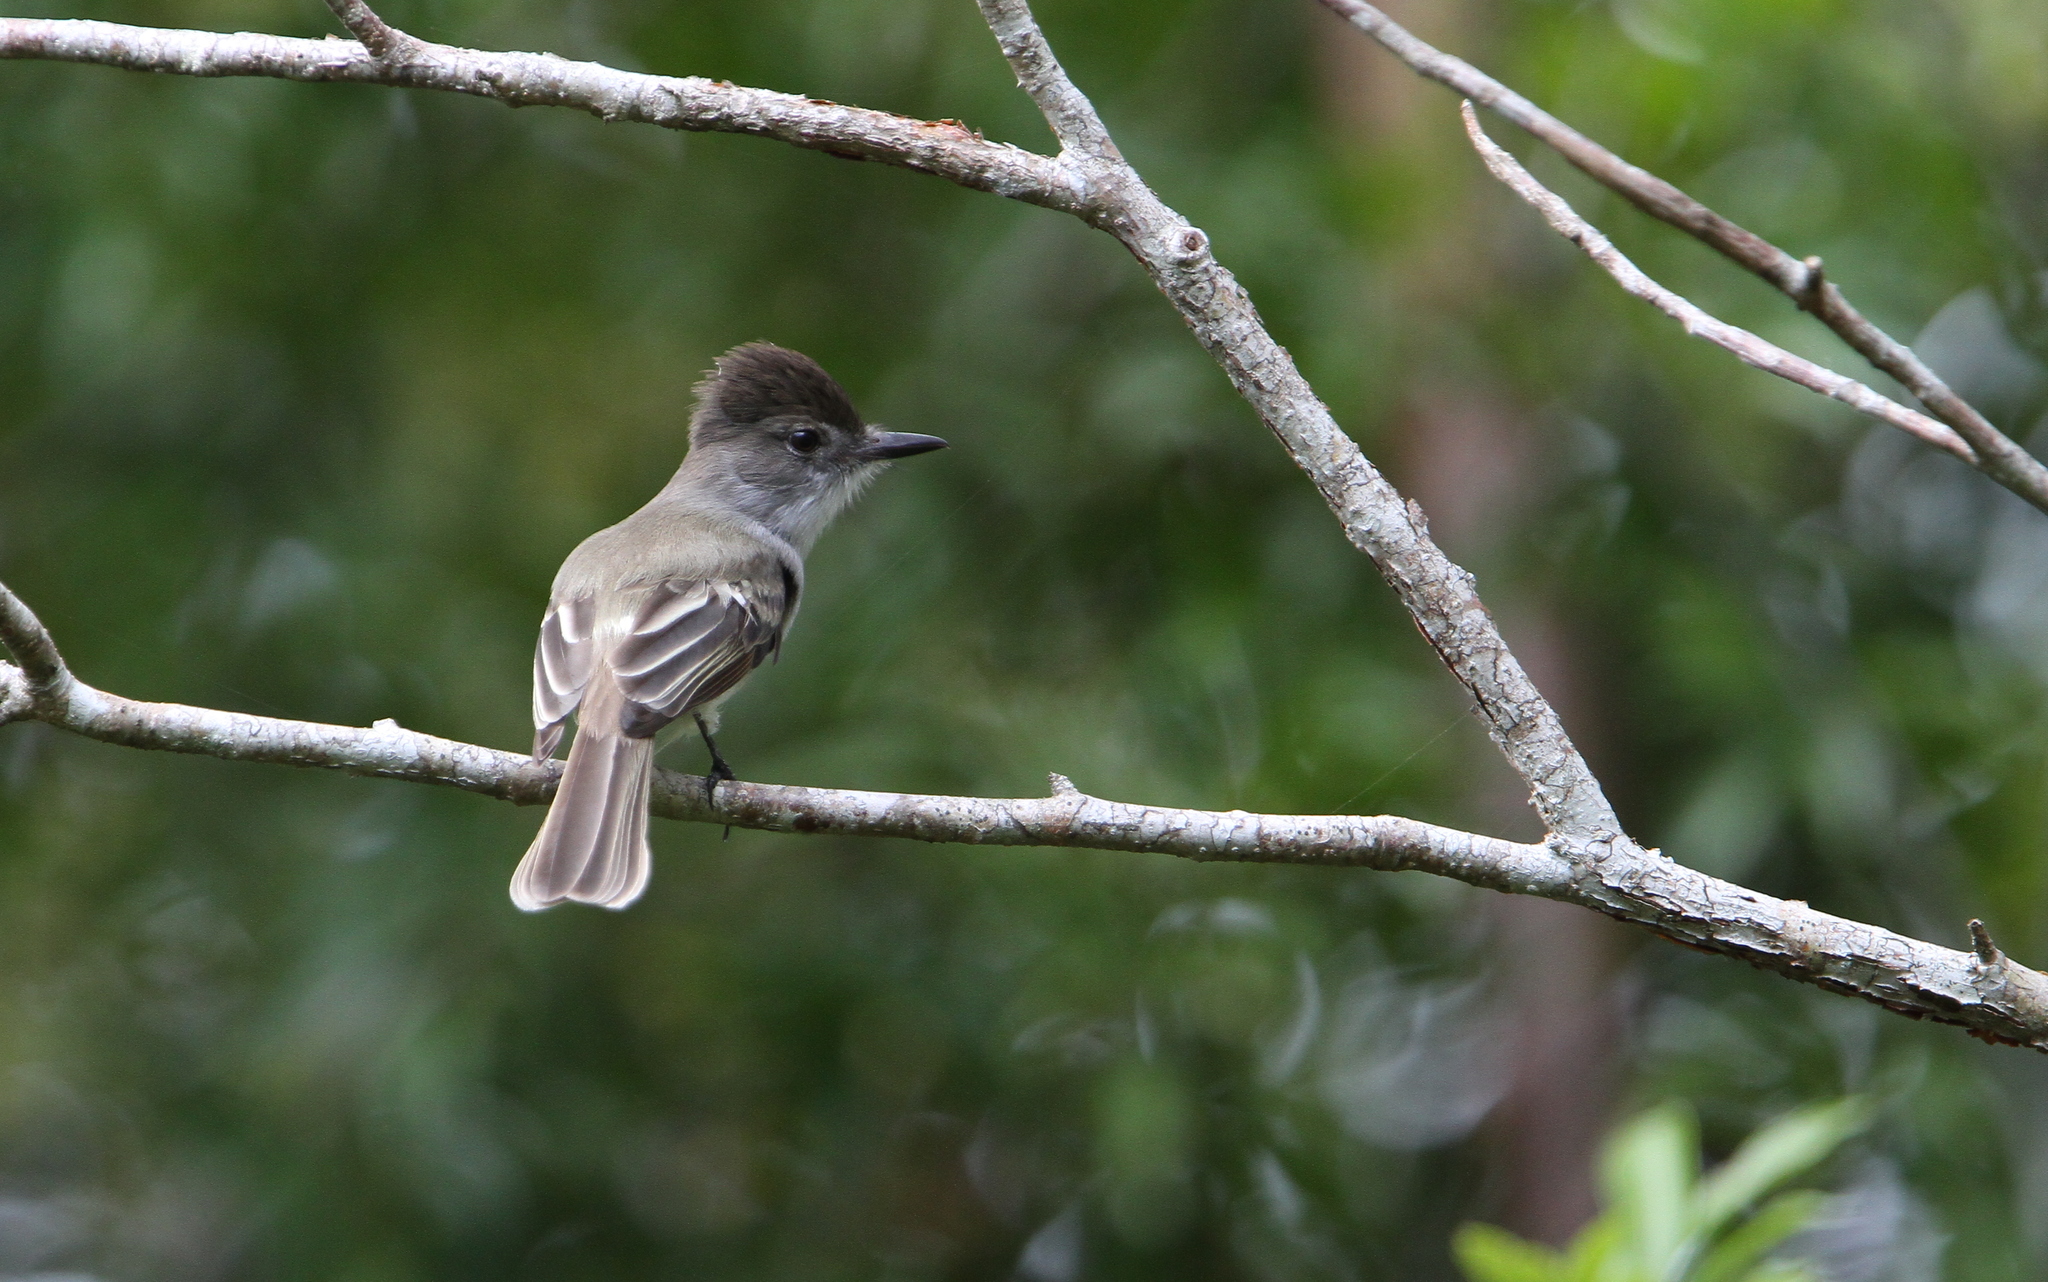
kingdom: Animalia
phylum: Chordata
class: Aves
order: Passeriformes
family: Tyrannidae
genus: Myiarchus
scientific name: Myiarchus sagrae
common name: La sagra's flycatcher
